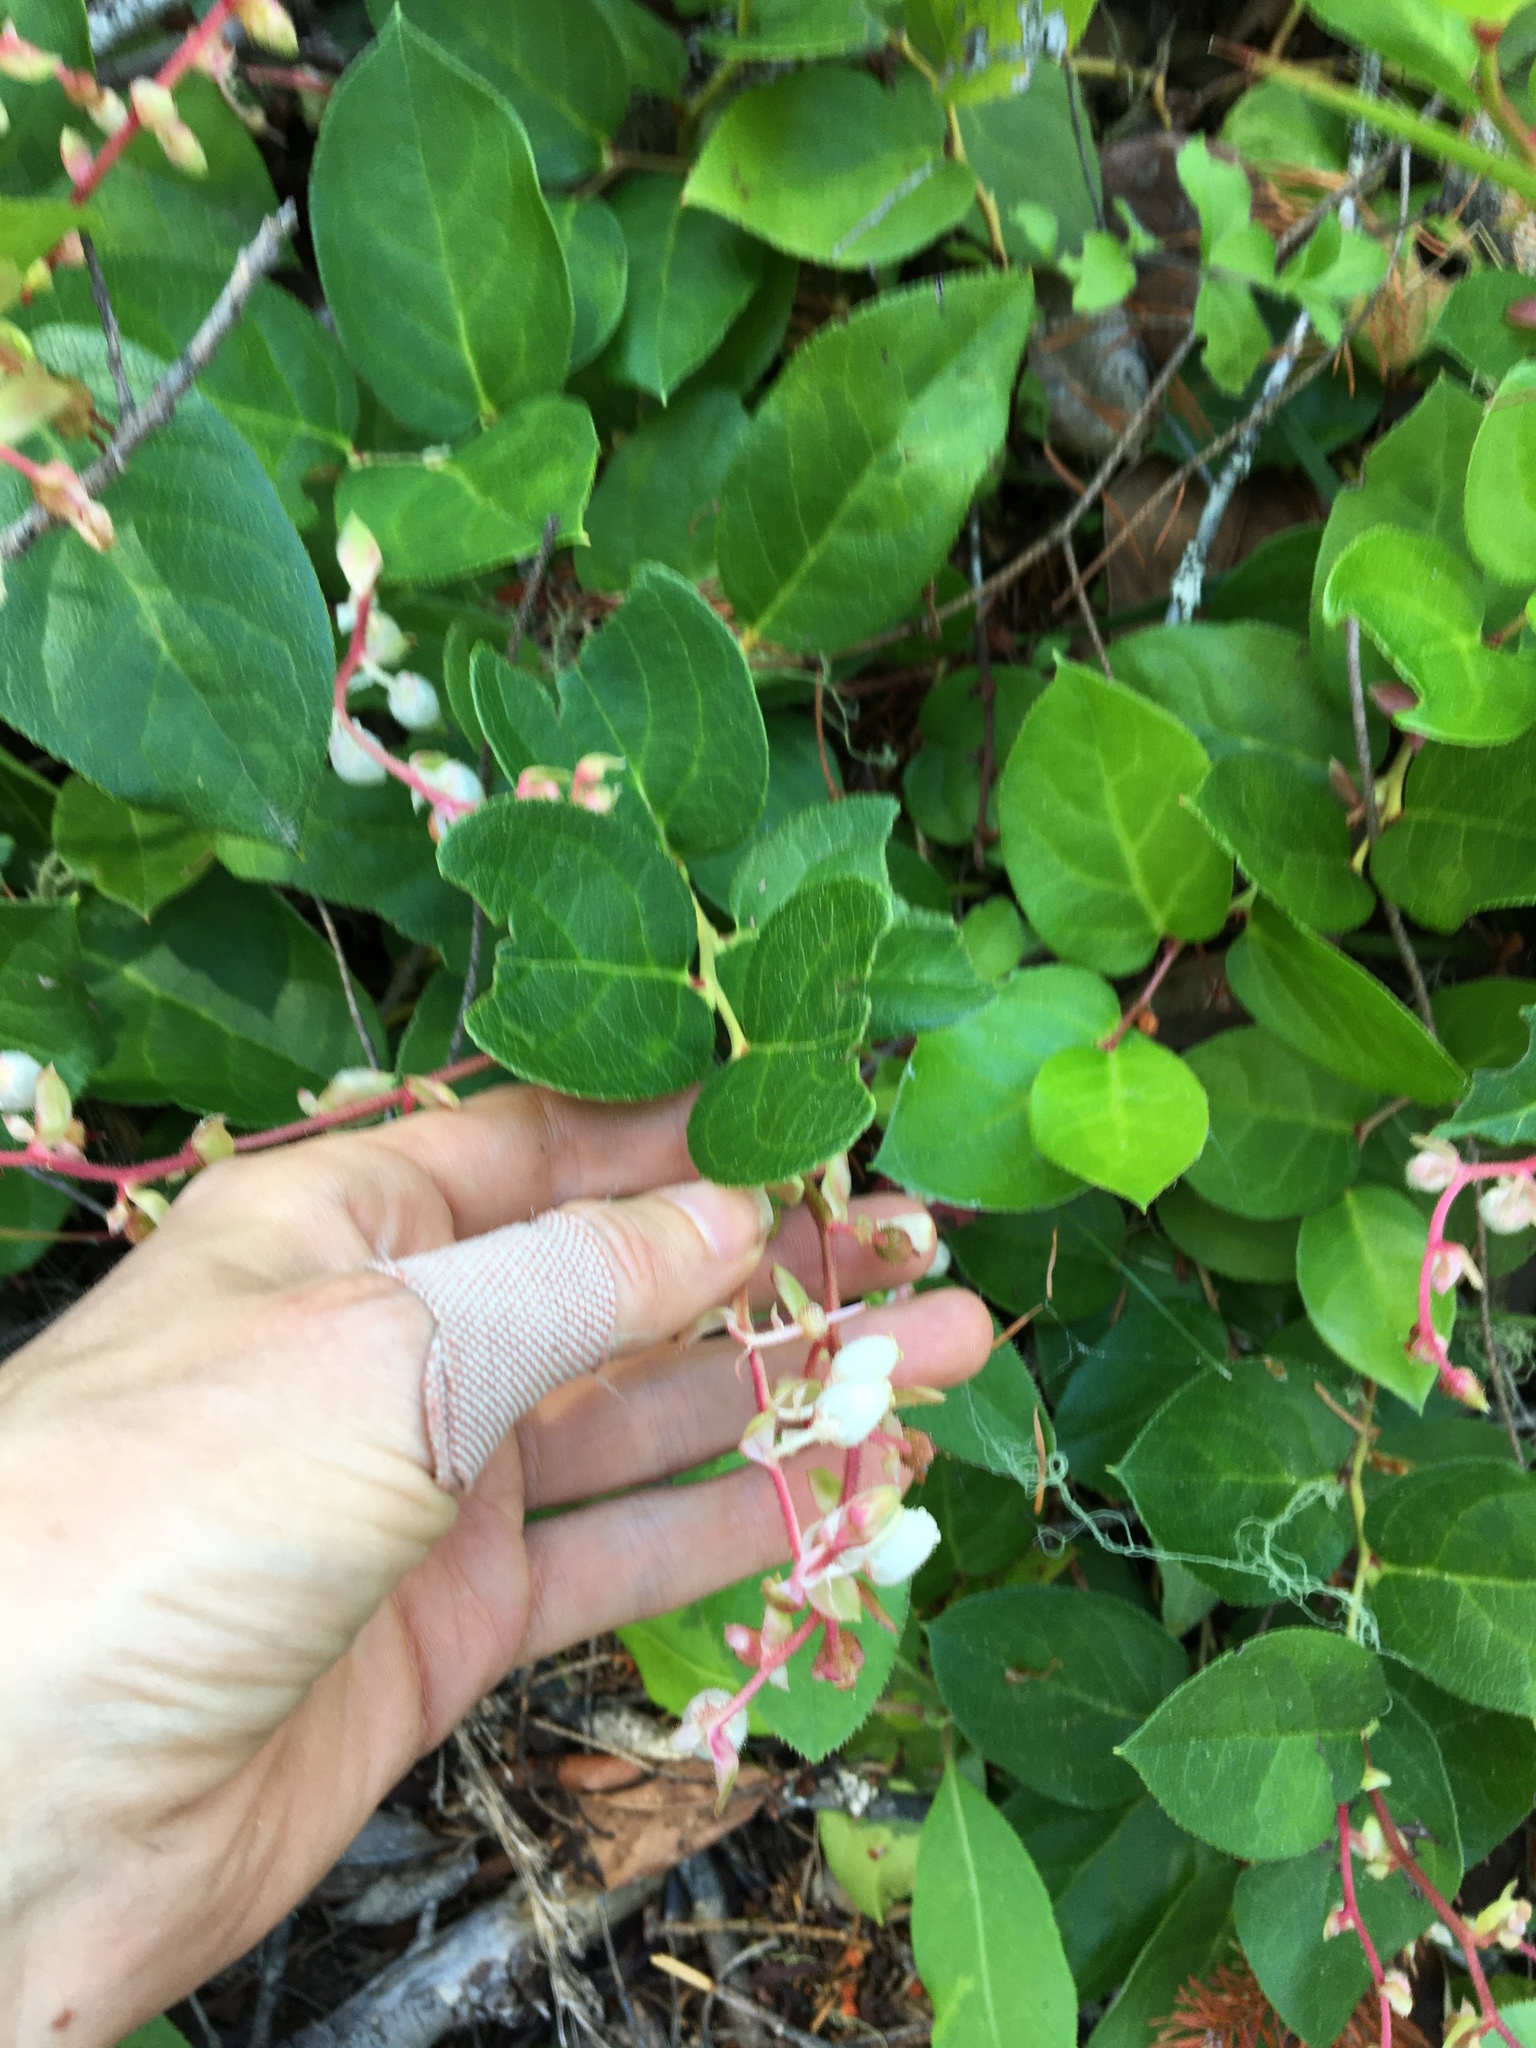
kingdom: Plantae
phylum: Tracheophyta
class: Magnoliopsida
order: Ericales
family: Ericaceae
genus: Gaultheria
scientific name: Gaultheria shallon
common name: Shallon
